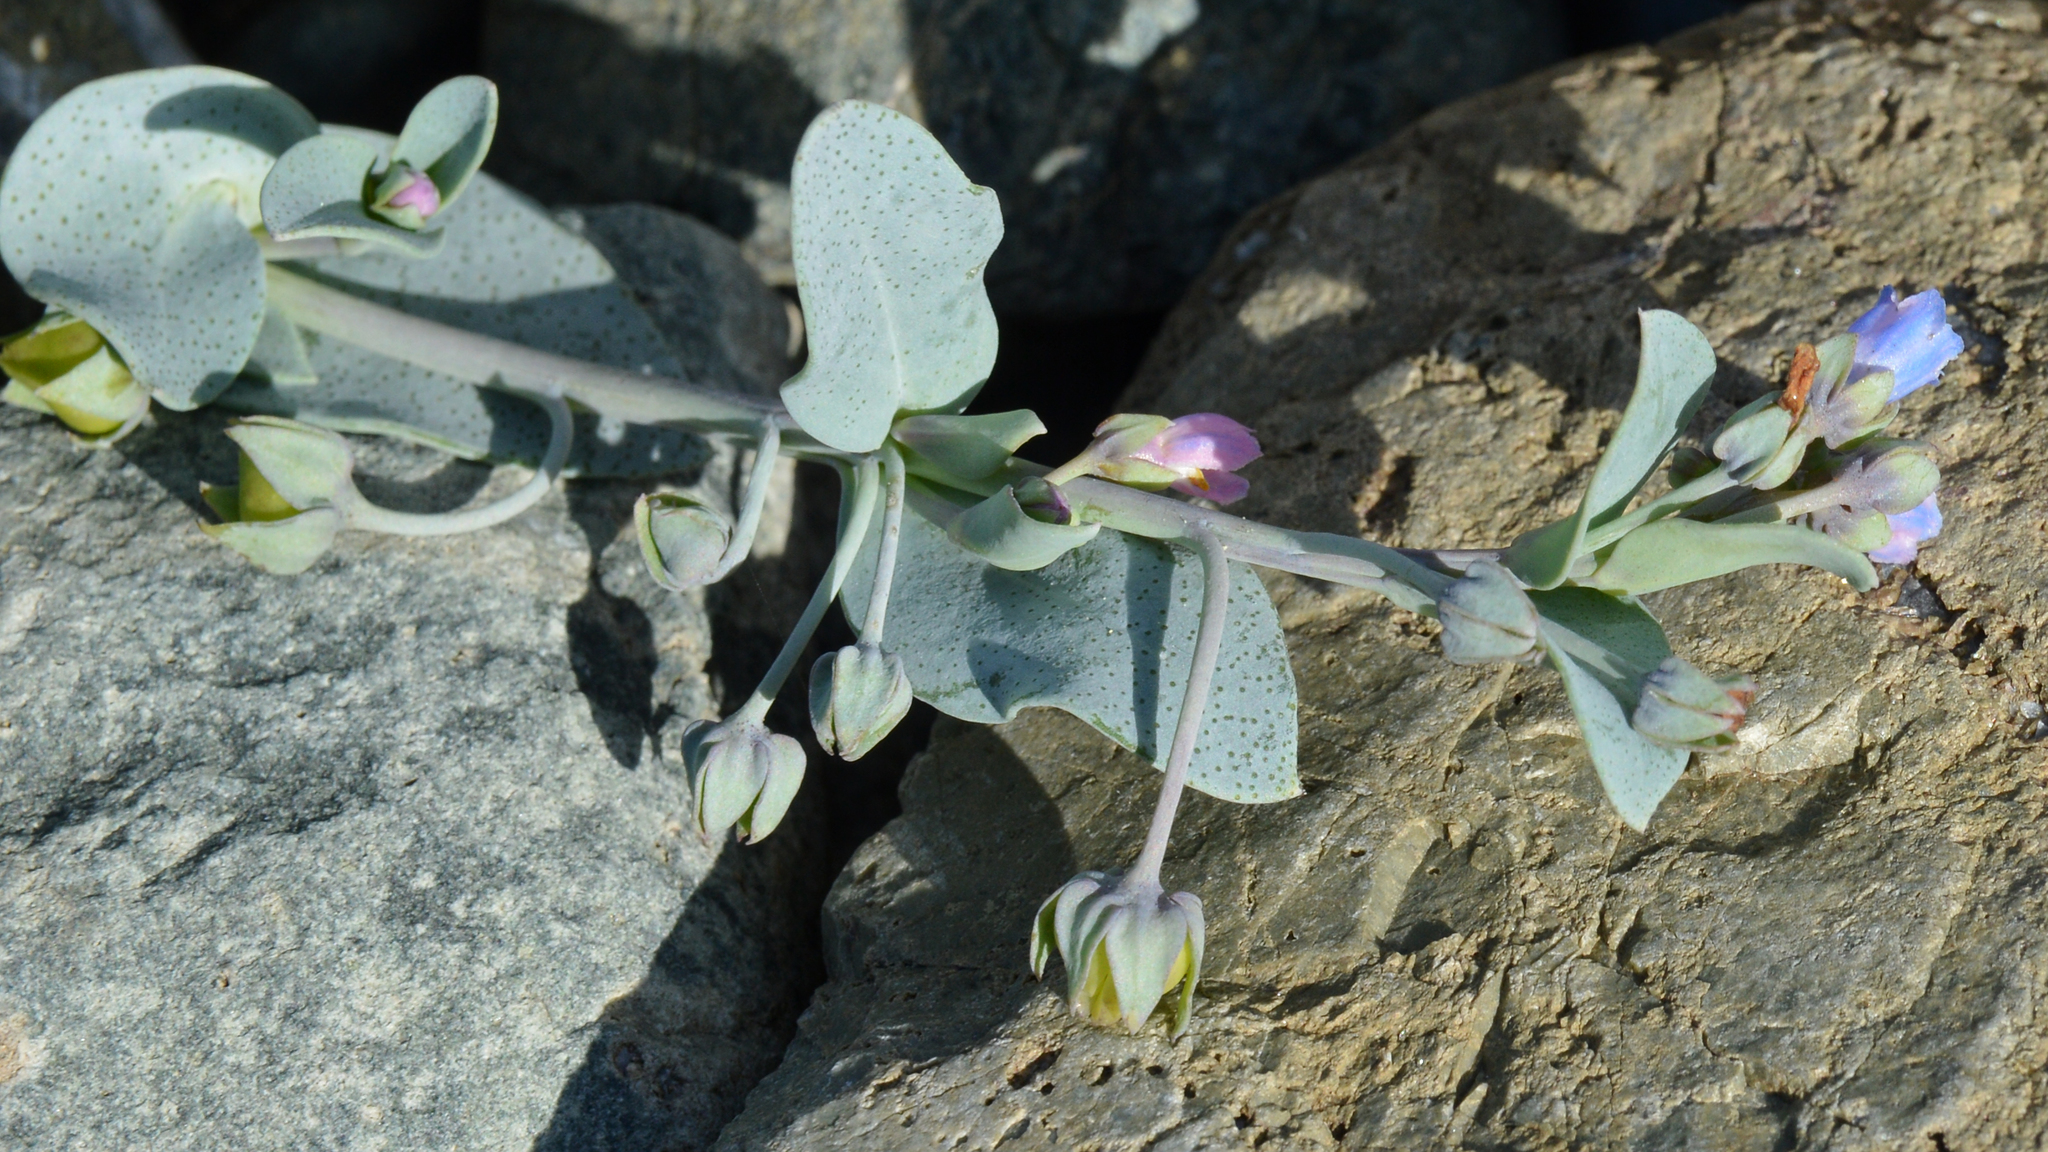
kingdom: Plantae
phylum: Tracheophyta
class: Magnoliopsida
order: Boraginales
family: Boraginaceae
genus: Mertensia
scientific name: Mertensia maritima
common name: Oysterplant
